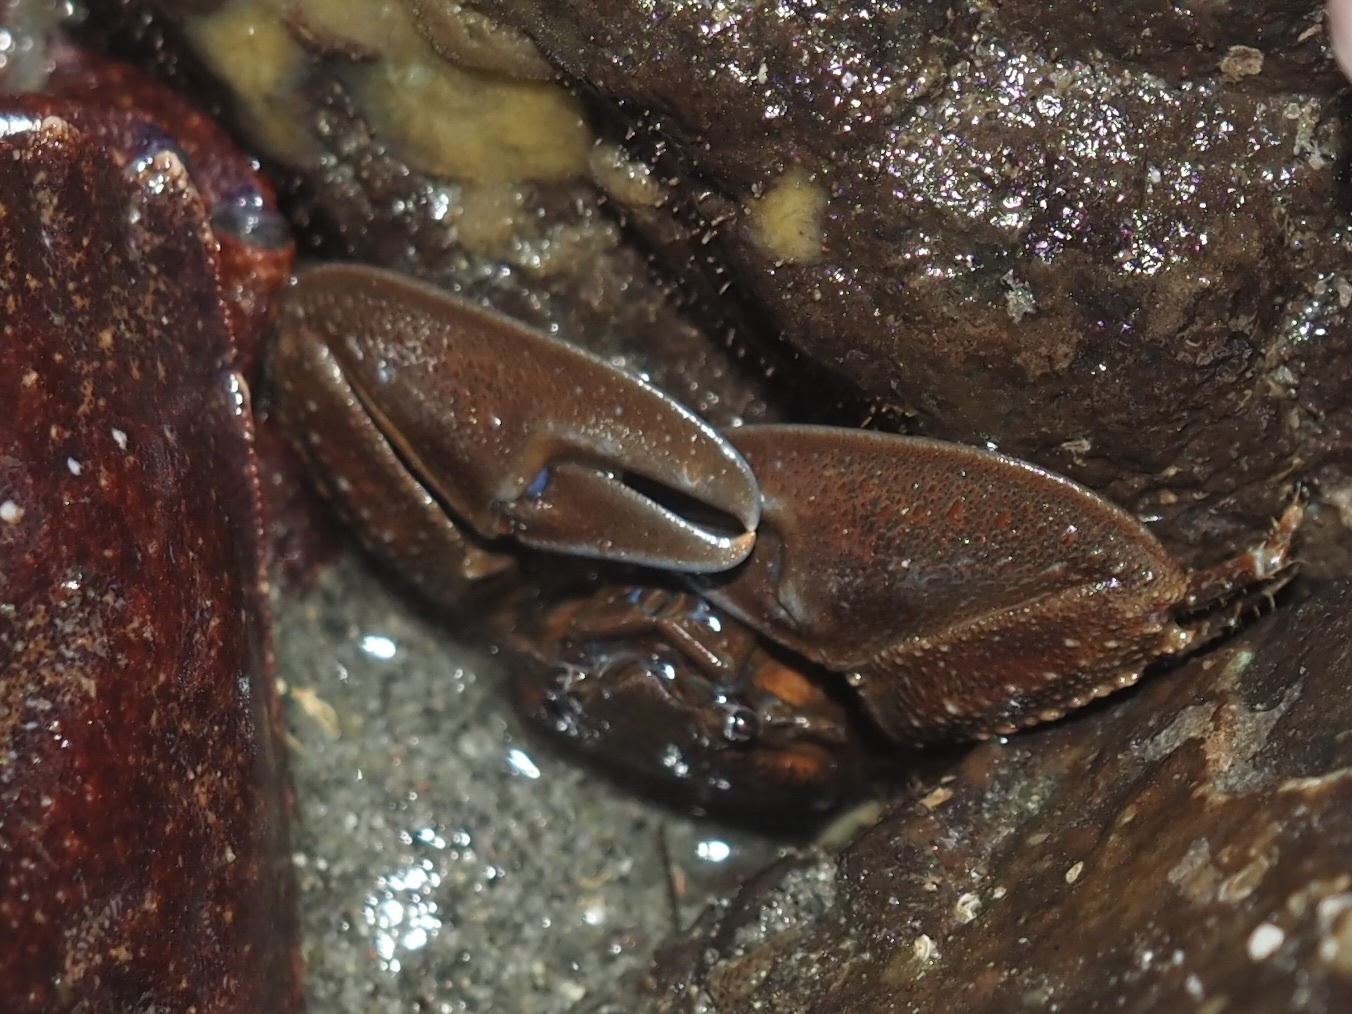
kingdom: Animalia
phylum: Arthropoda
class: Malacostraca
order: Decapoda
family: Porcellanidae
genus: Petrolisthes
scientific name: Petrolisthes eriomerus
